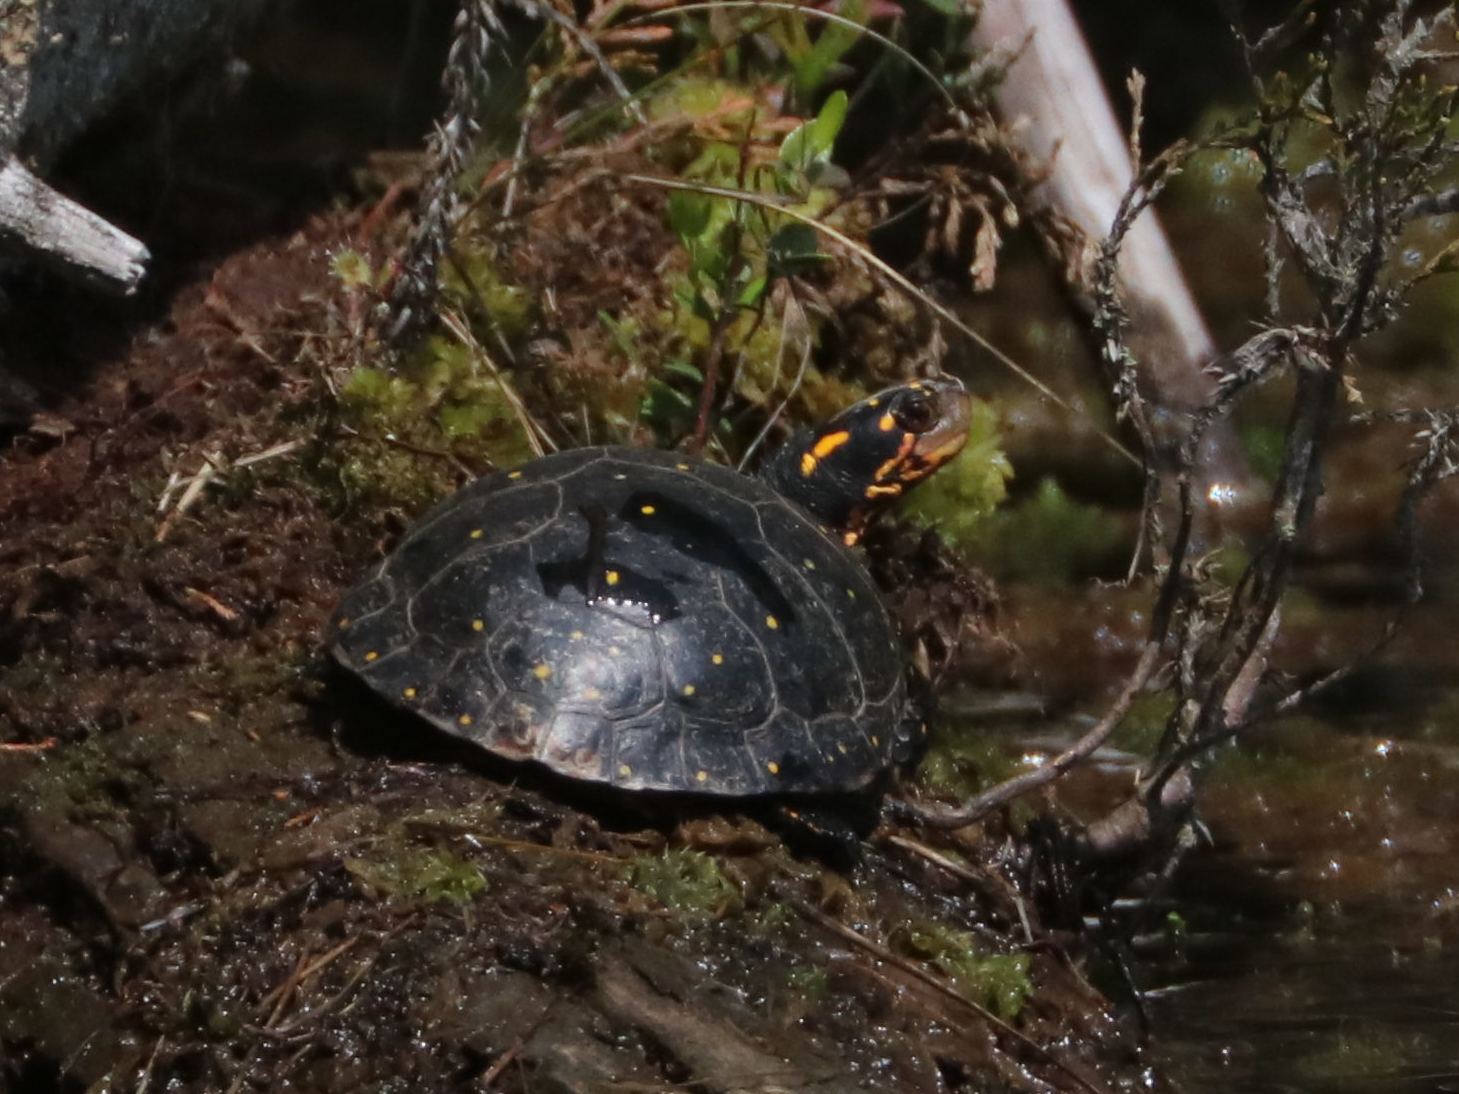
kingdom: Animalia
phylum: Chordata
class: Testudines
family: Emydidae
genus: Clemmys
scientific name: Clemmys guttata
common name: Spotted turtle
